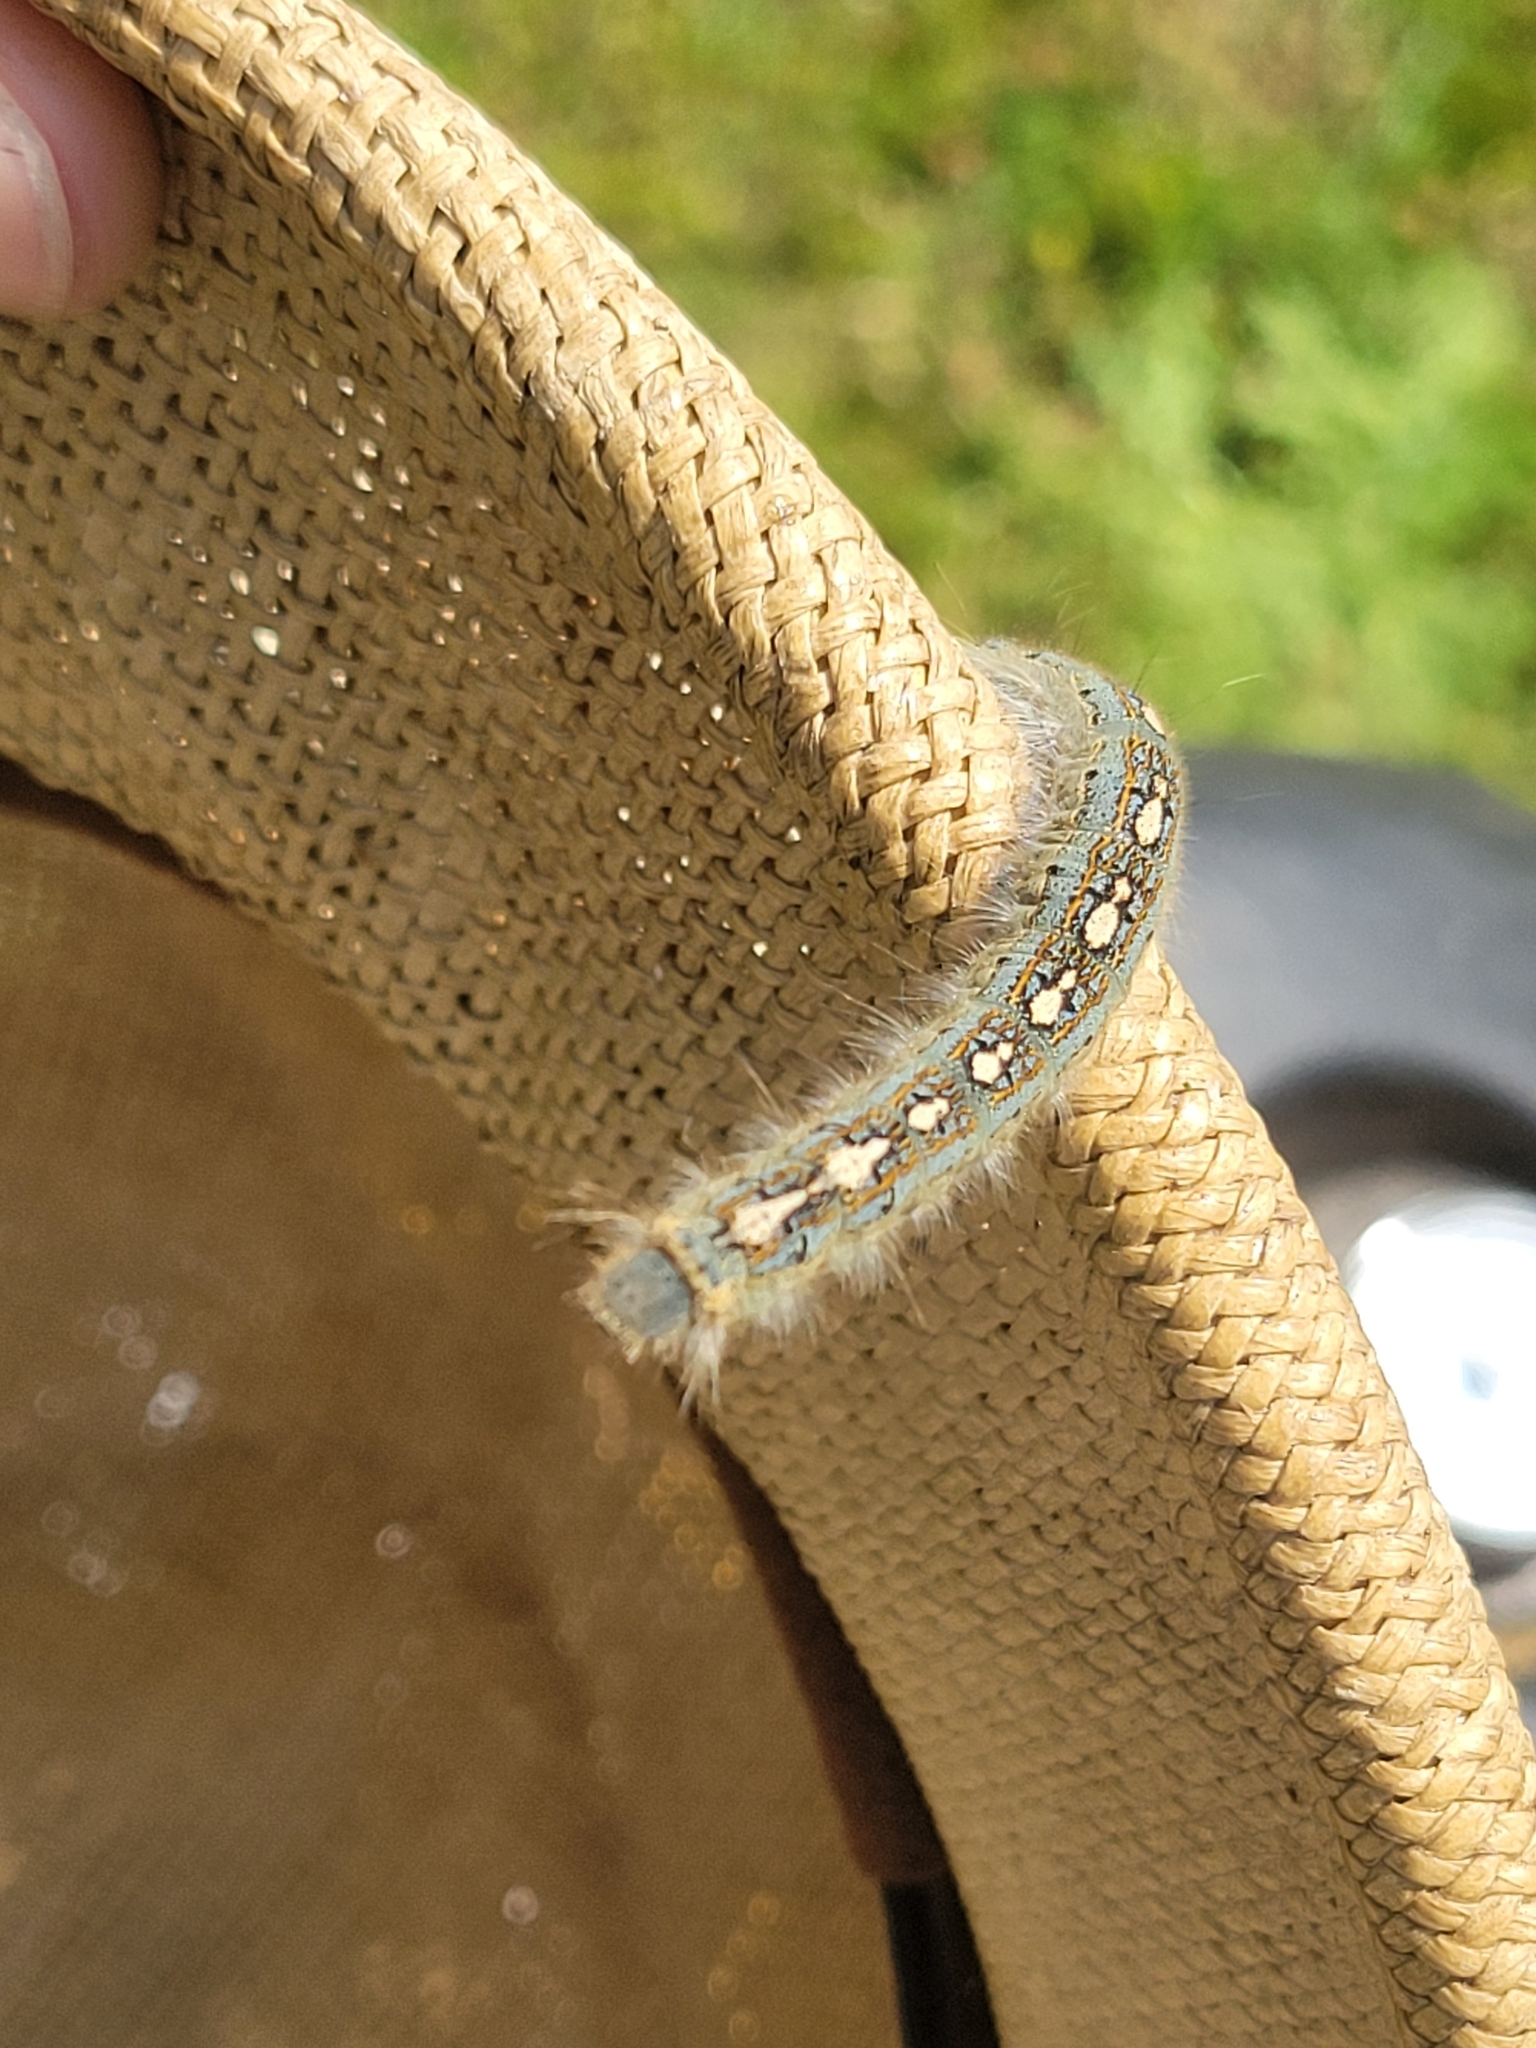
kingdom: Animalia
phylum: Arthropoda
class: Insecta
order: Lepidoptera
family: Lasiocampidae
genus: Malacosoma
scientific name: Malacosoma disstria
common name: Forest tent caterpillar
